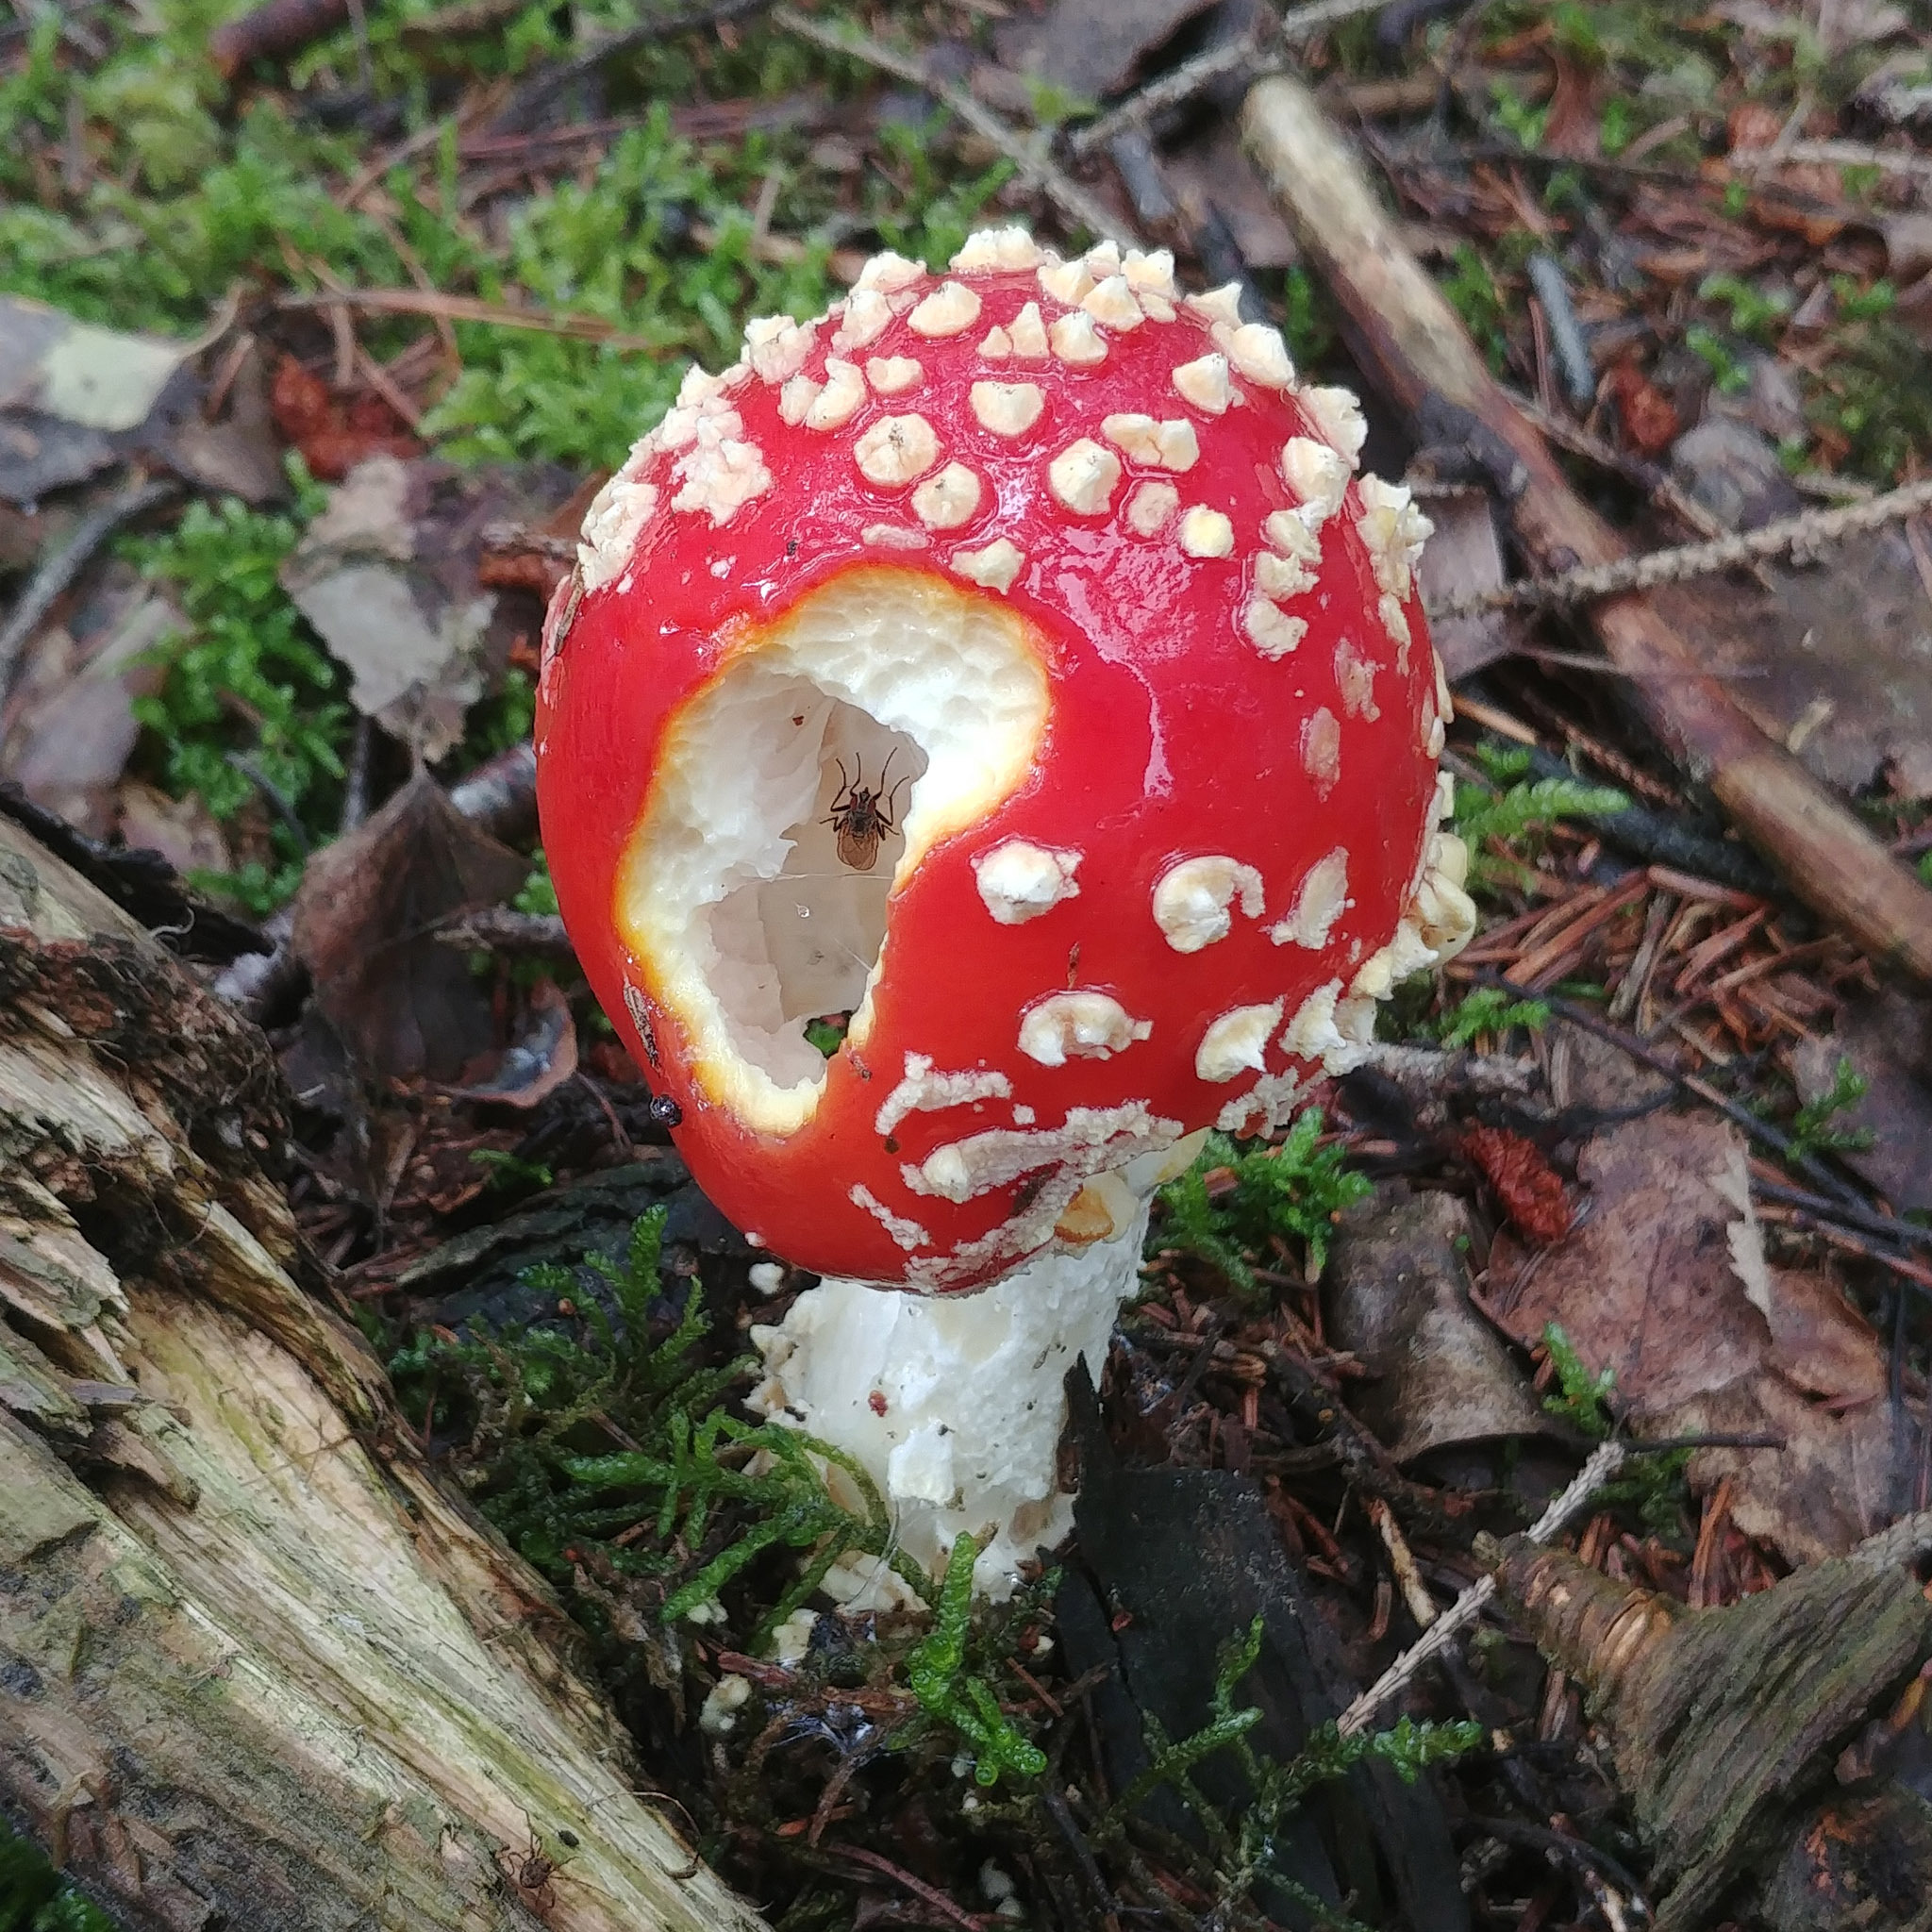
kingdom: Fungi
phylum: Basidiomycota
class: Agaricomycetes
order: Agaricales
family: Amanitaceae
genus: Amanita
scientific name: Amanita muscaria
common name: Fly agaric
